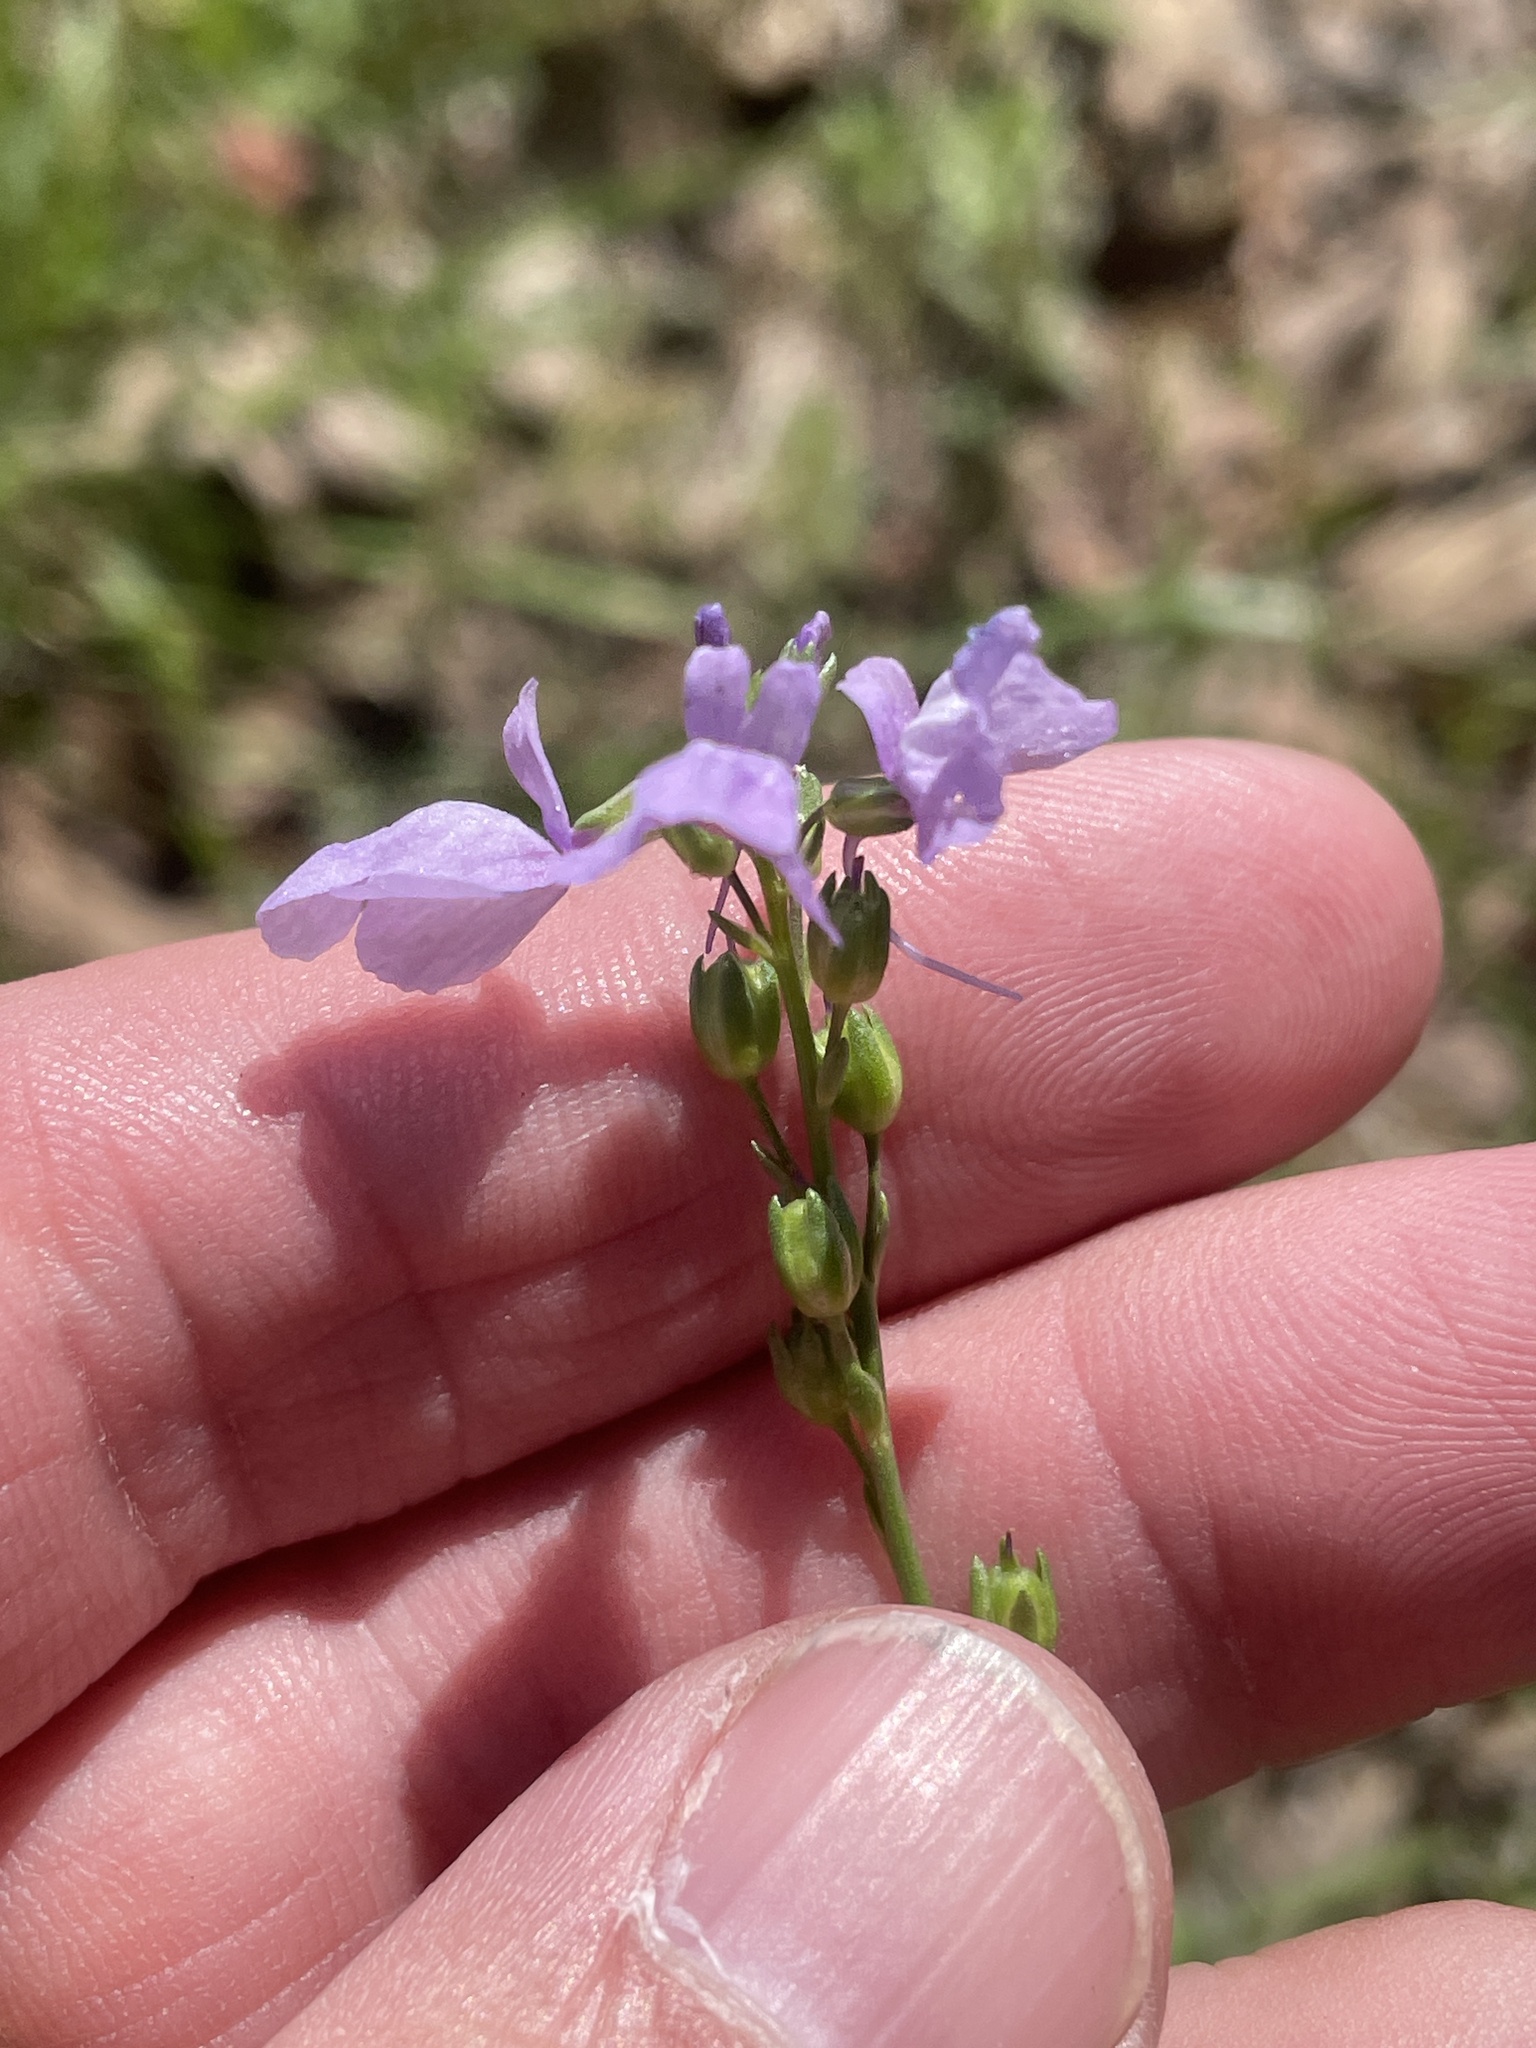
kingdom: Plantae
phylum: Tracheophyta
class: Magnoliopsida
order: Lamiales
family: Plantaginaceae
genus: Nuttallanthus
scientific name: Nuttallanthus texanus
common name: Texas toadflax
